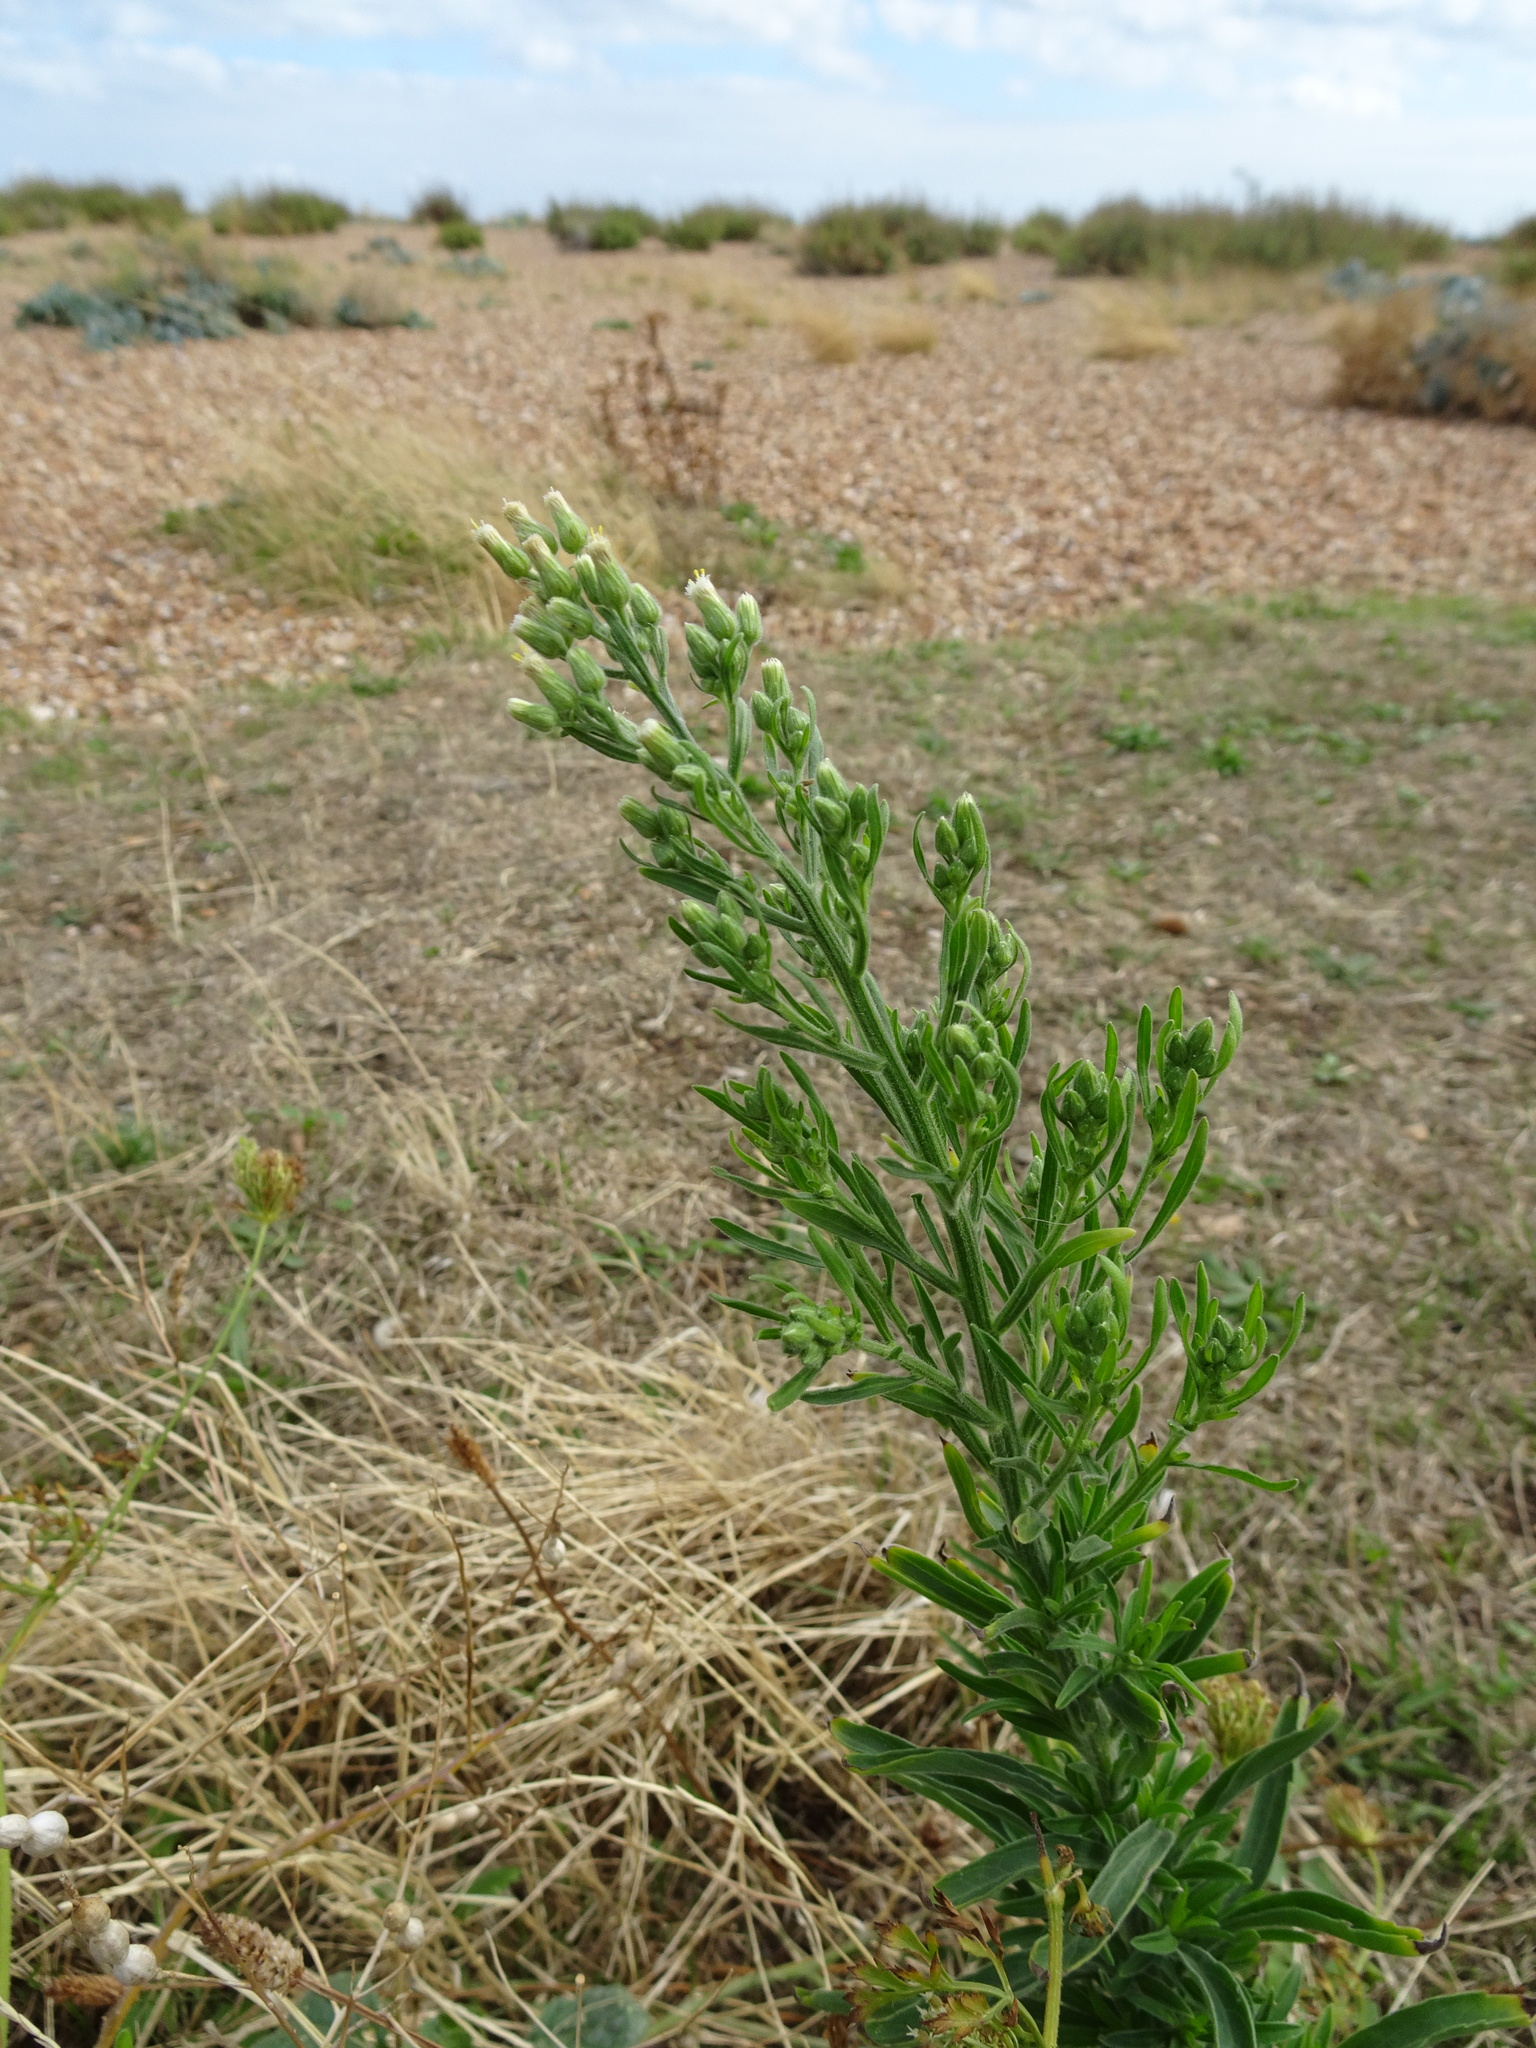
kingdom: Plantae
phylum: Tracheophyta
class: Magnoliopsida
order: Asterales
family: Asteraceae
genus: Erigeron
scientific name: Erigeron sumatrensis
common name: Daisy
